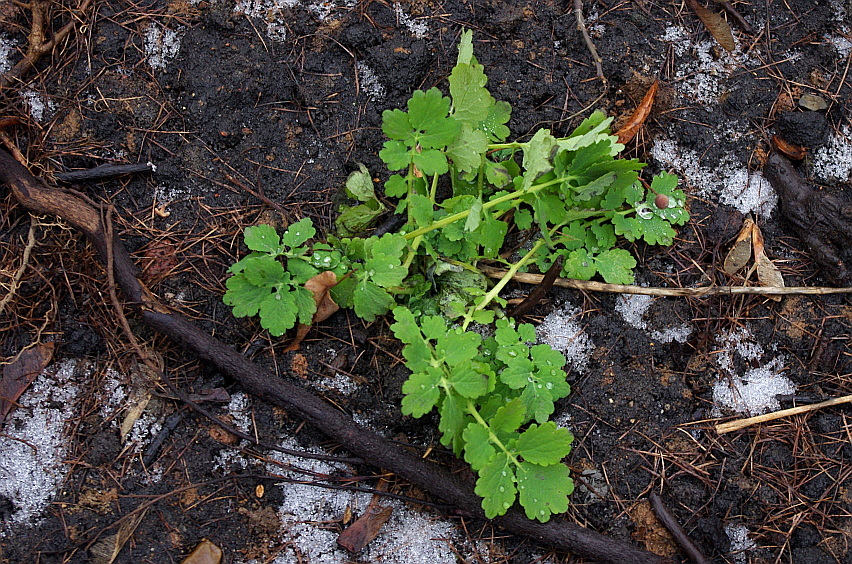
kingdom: Plantae
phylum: Tracheophyta
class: Magnoliopsida
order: Ranunculales
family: Papaveraceae
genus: Chelidonium
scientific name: Chelidonium majus
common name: Greater celandine
